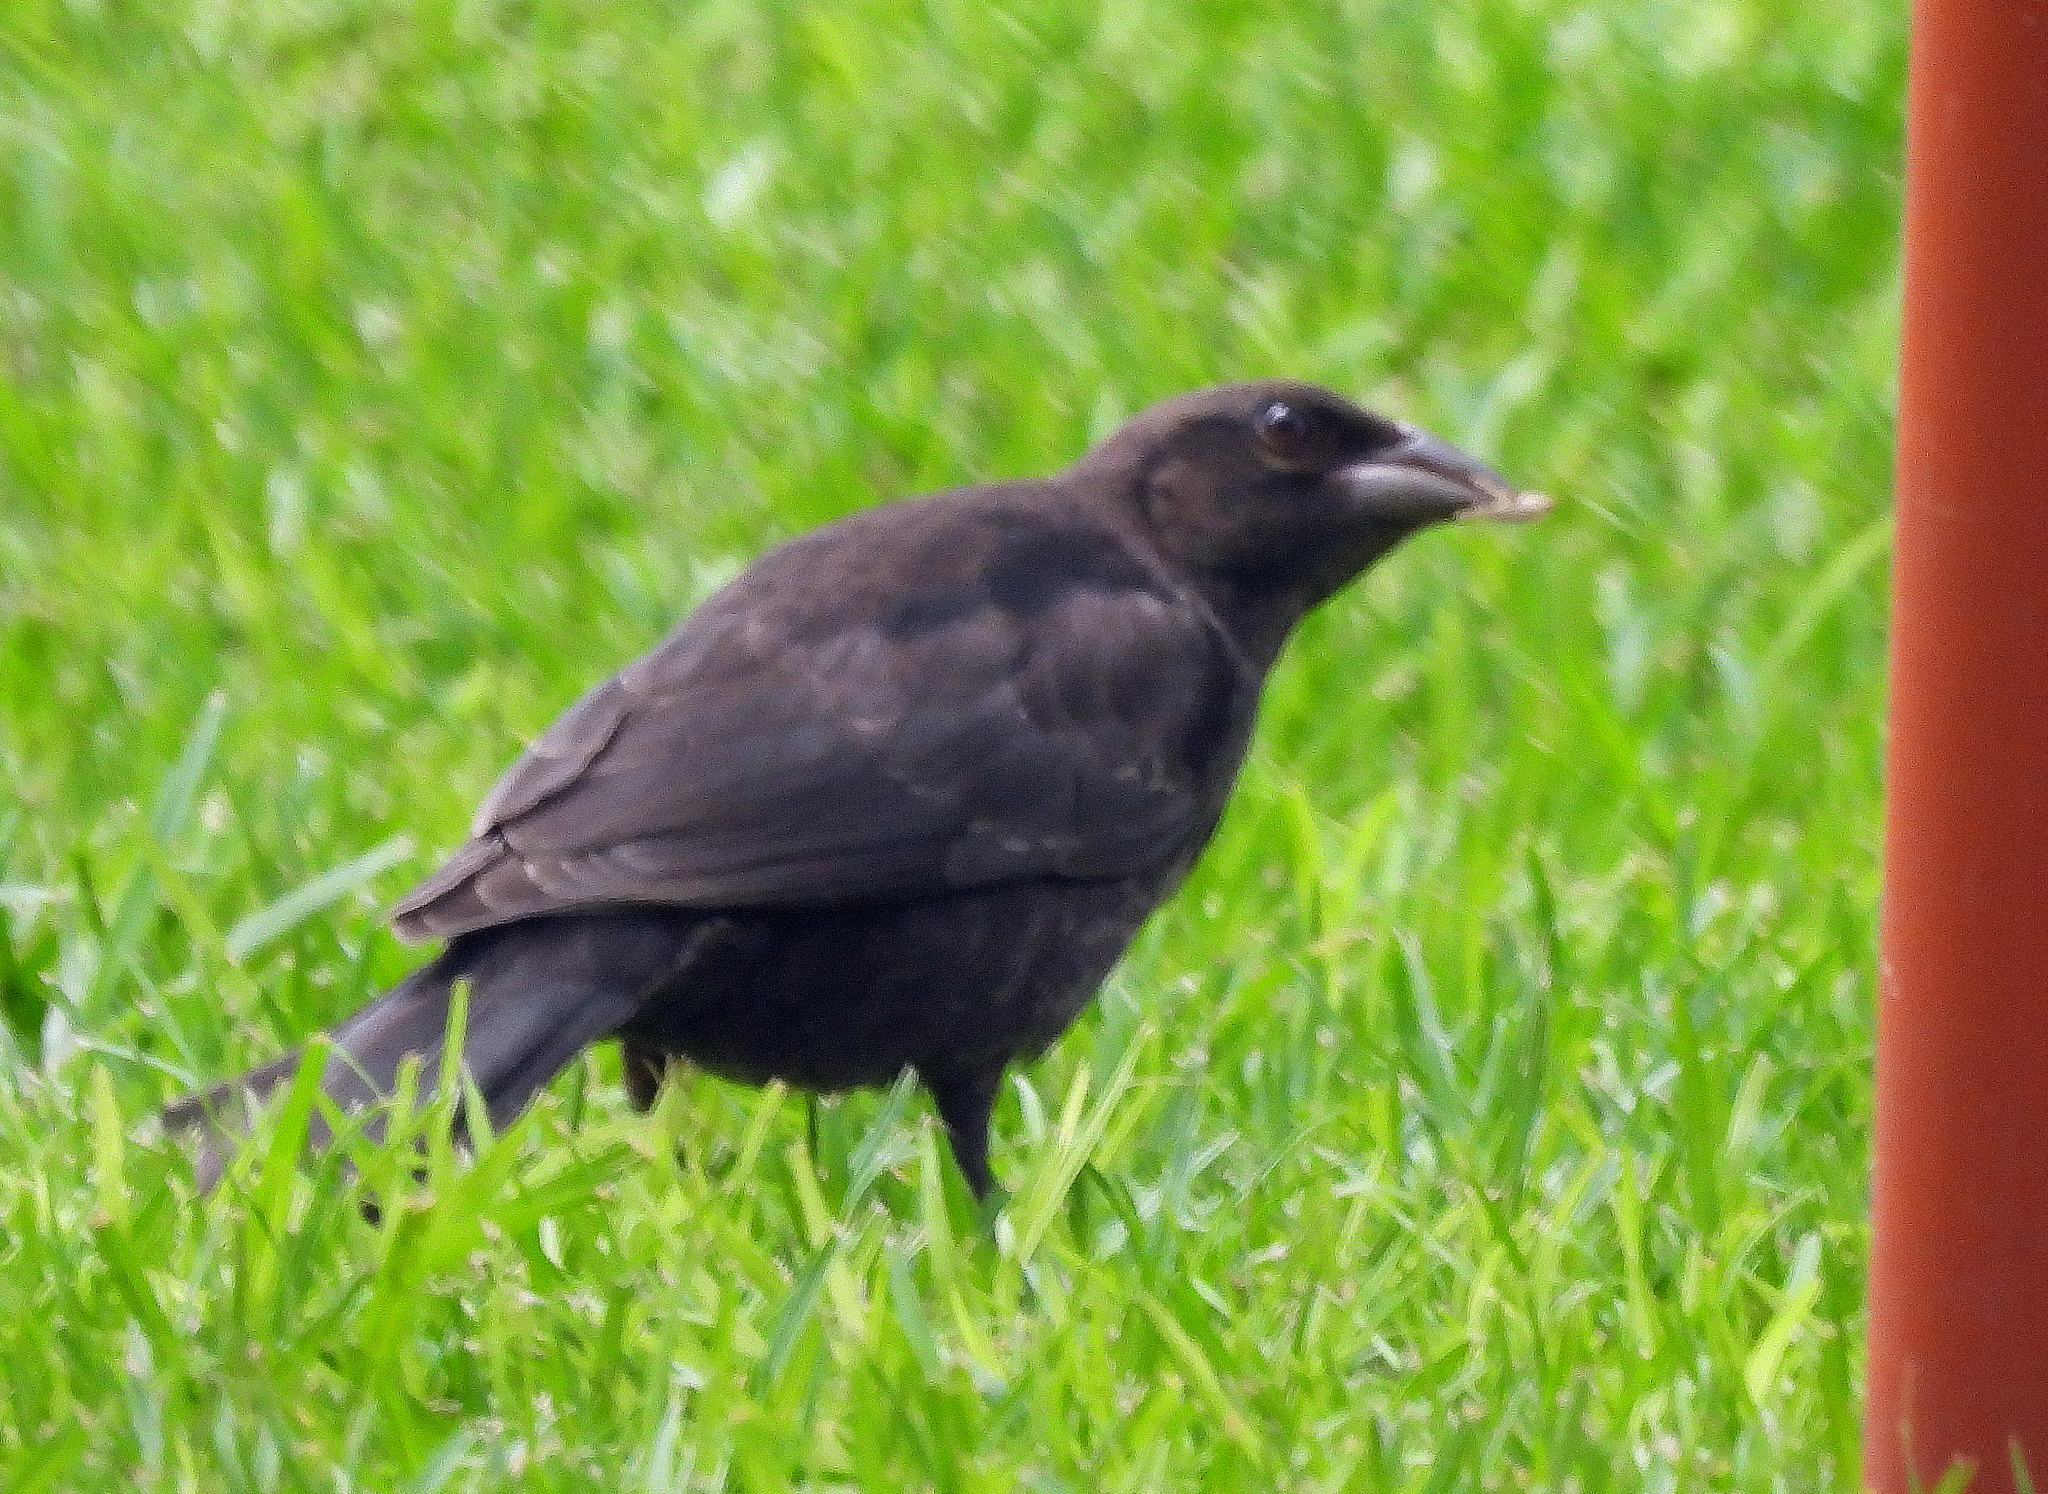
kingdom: Animalia
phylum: Chordata
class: Aves
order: Passeriformes
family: Icteridae
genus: Molothrus
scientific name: Molothrus aeneus
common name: Bronzed cowbird
